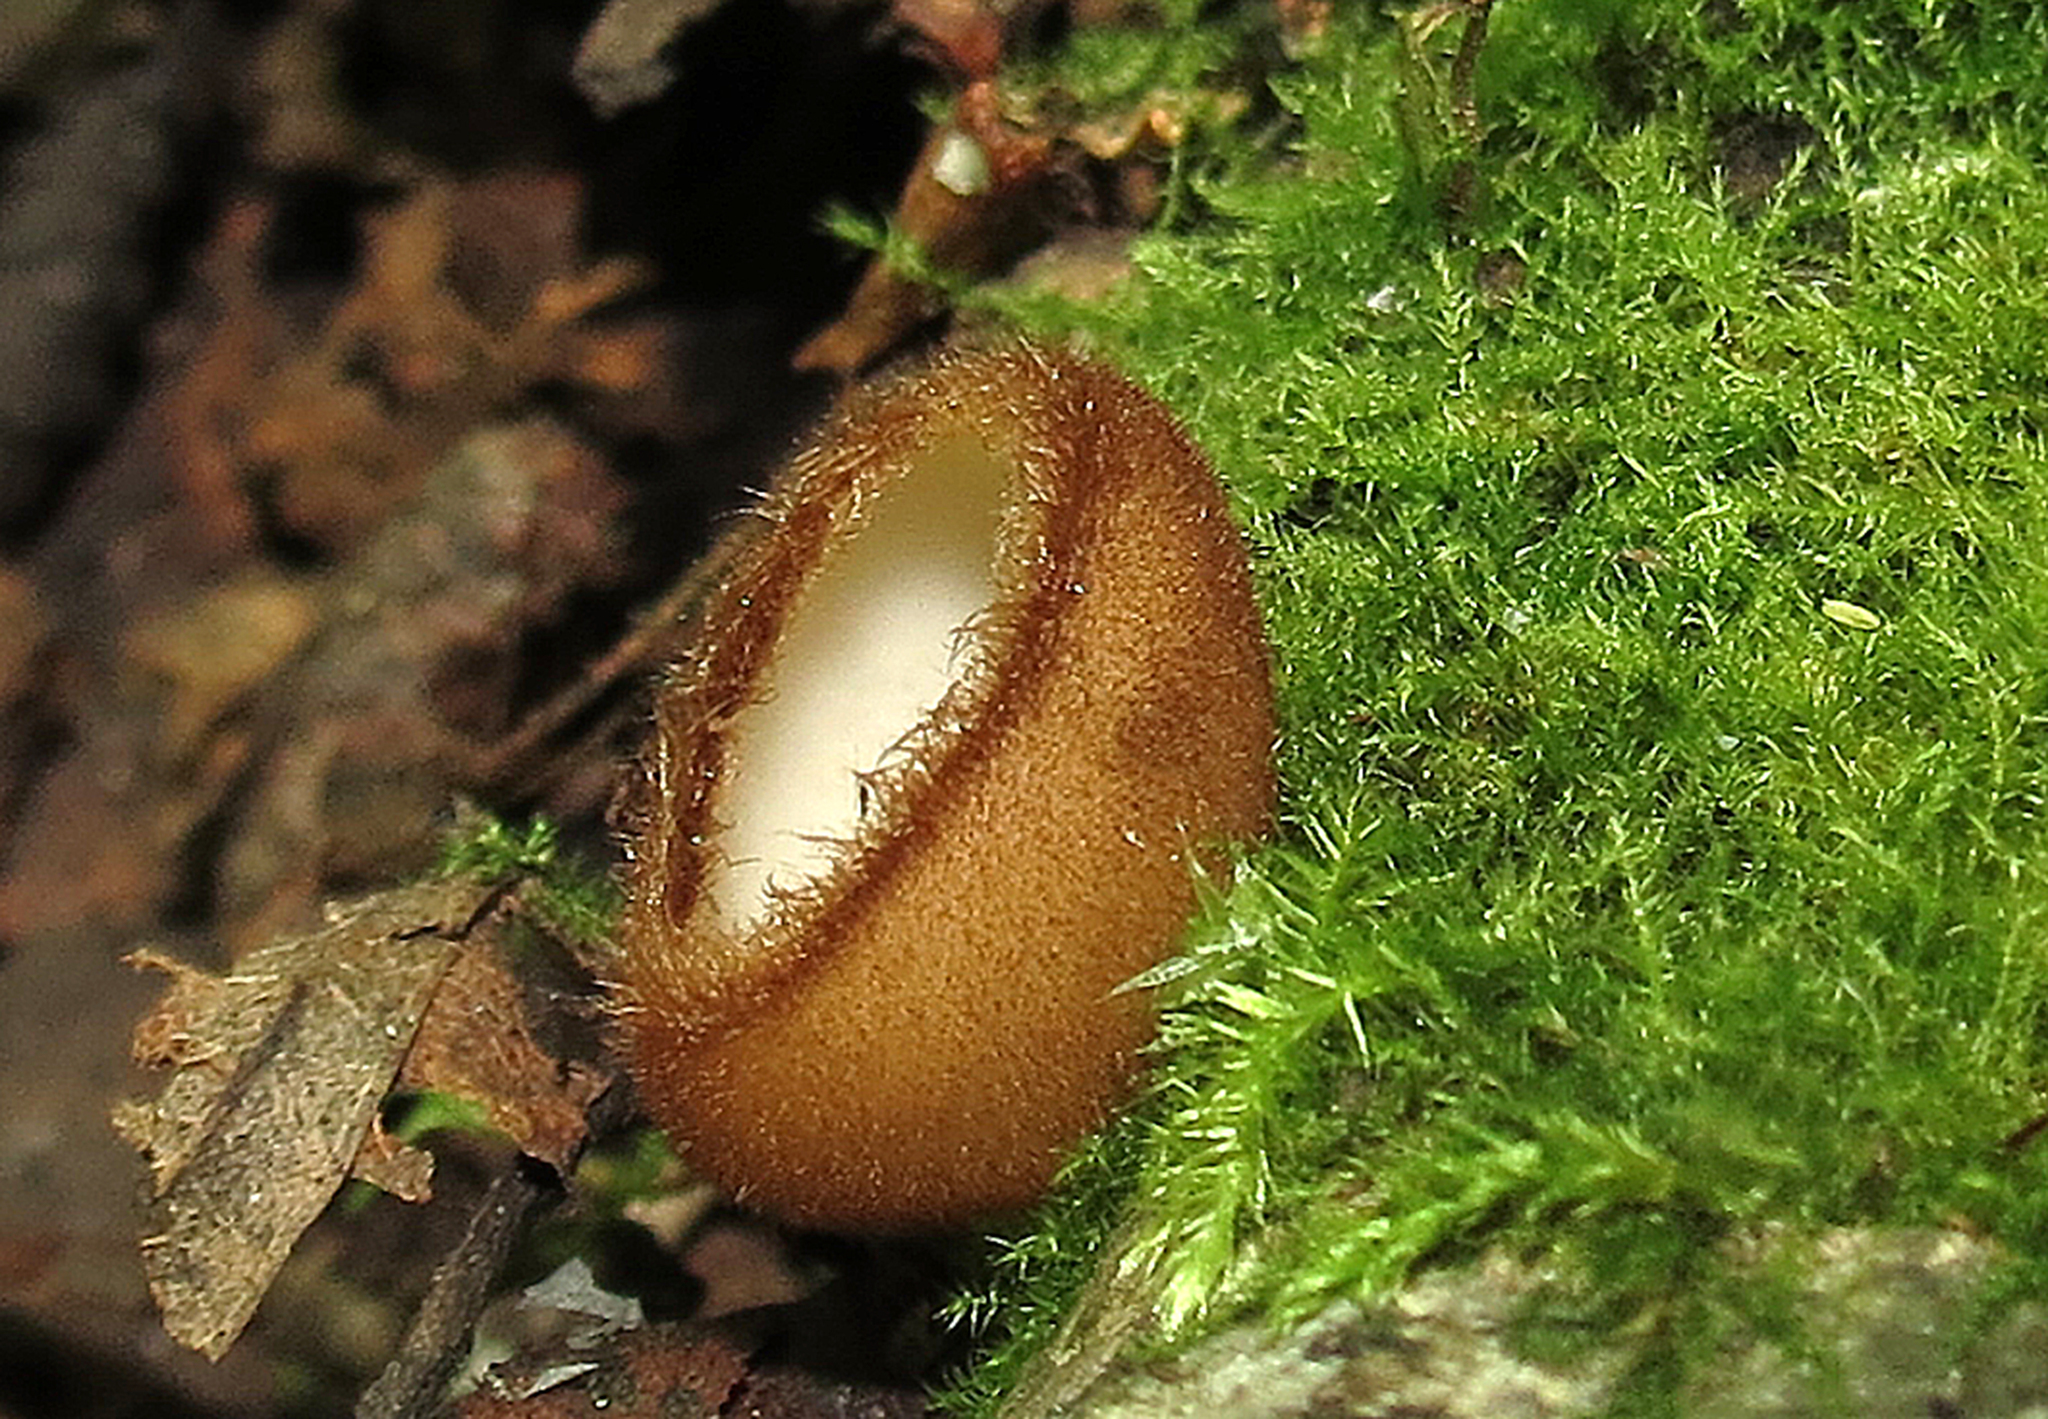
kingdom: Fungi
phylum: Ascomycota
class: Pezizomycetes
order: Pezizales
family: Pyronemataceae
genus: Humaria
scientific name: Humaria hemisphaerica
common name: Glazed cup
